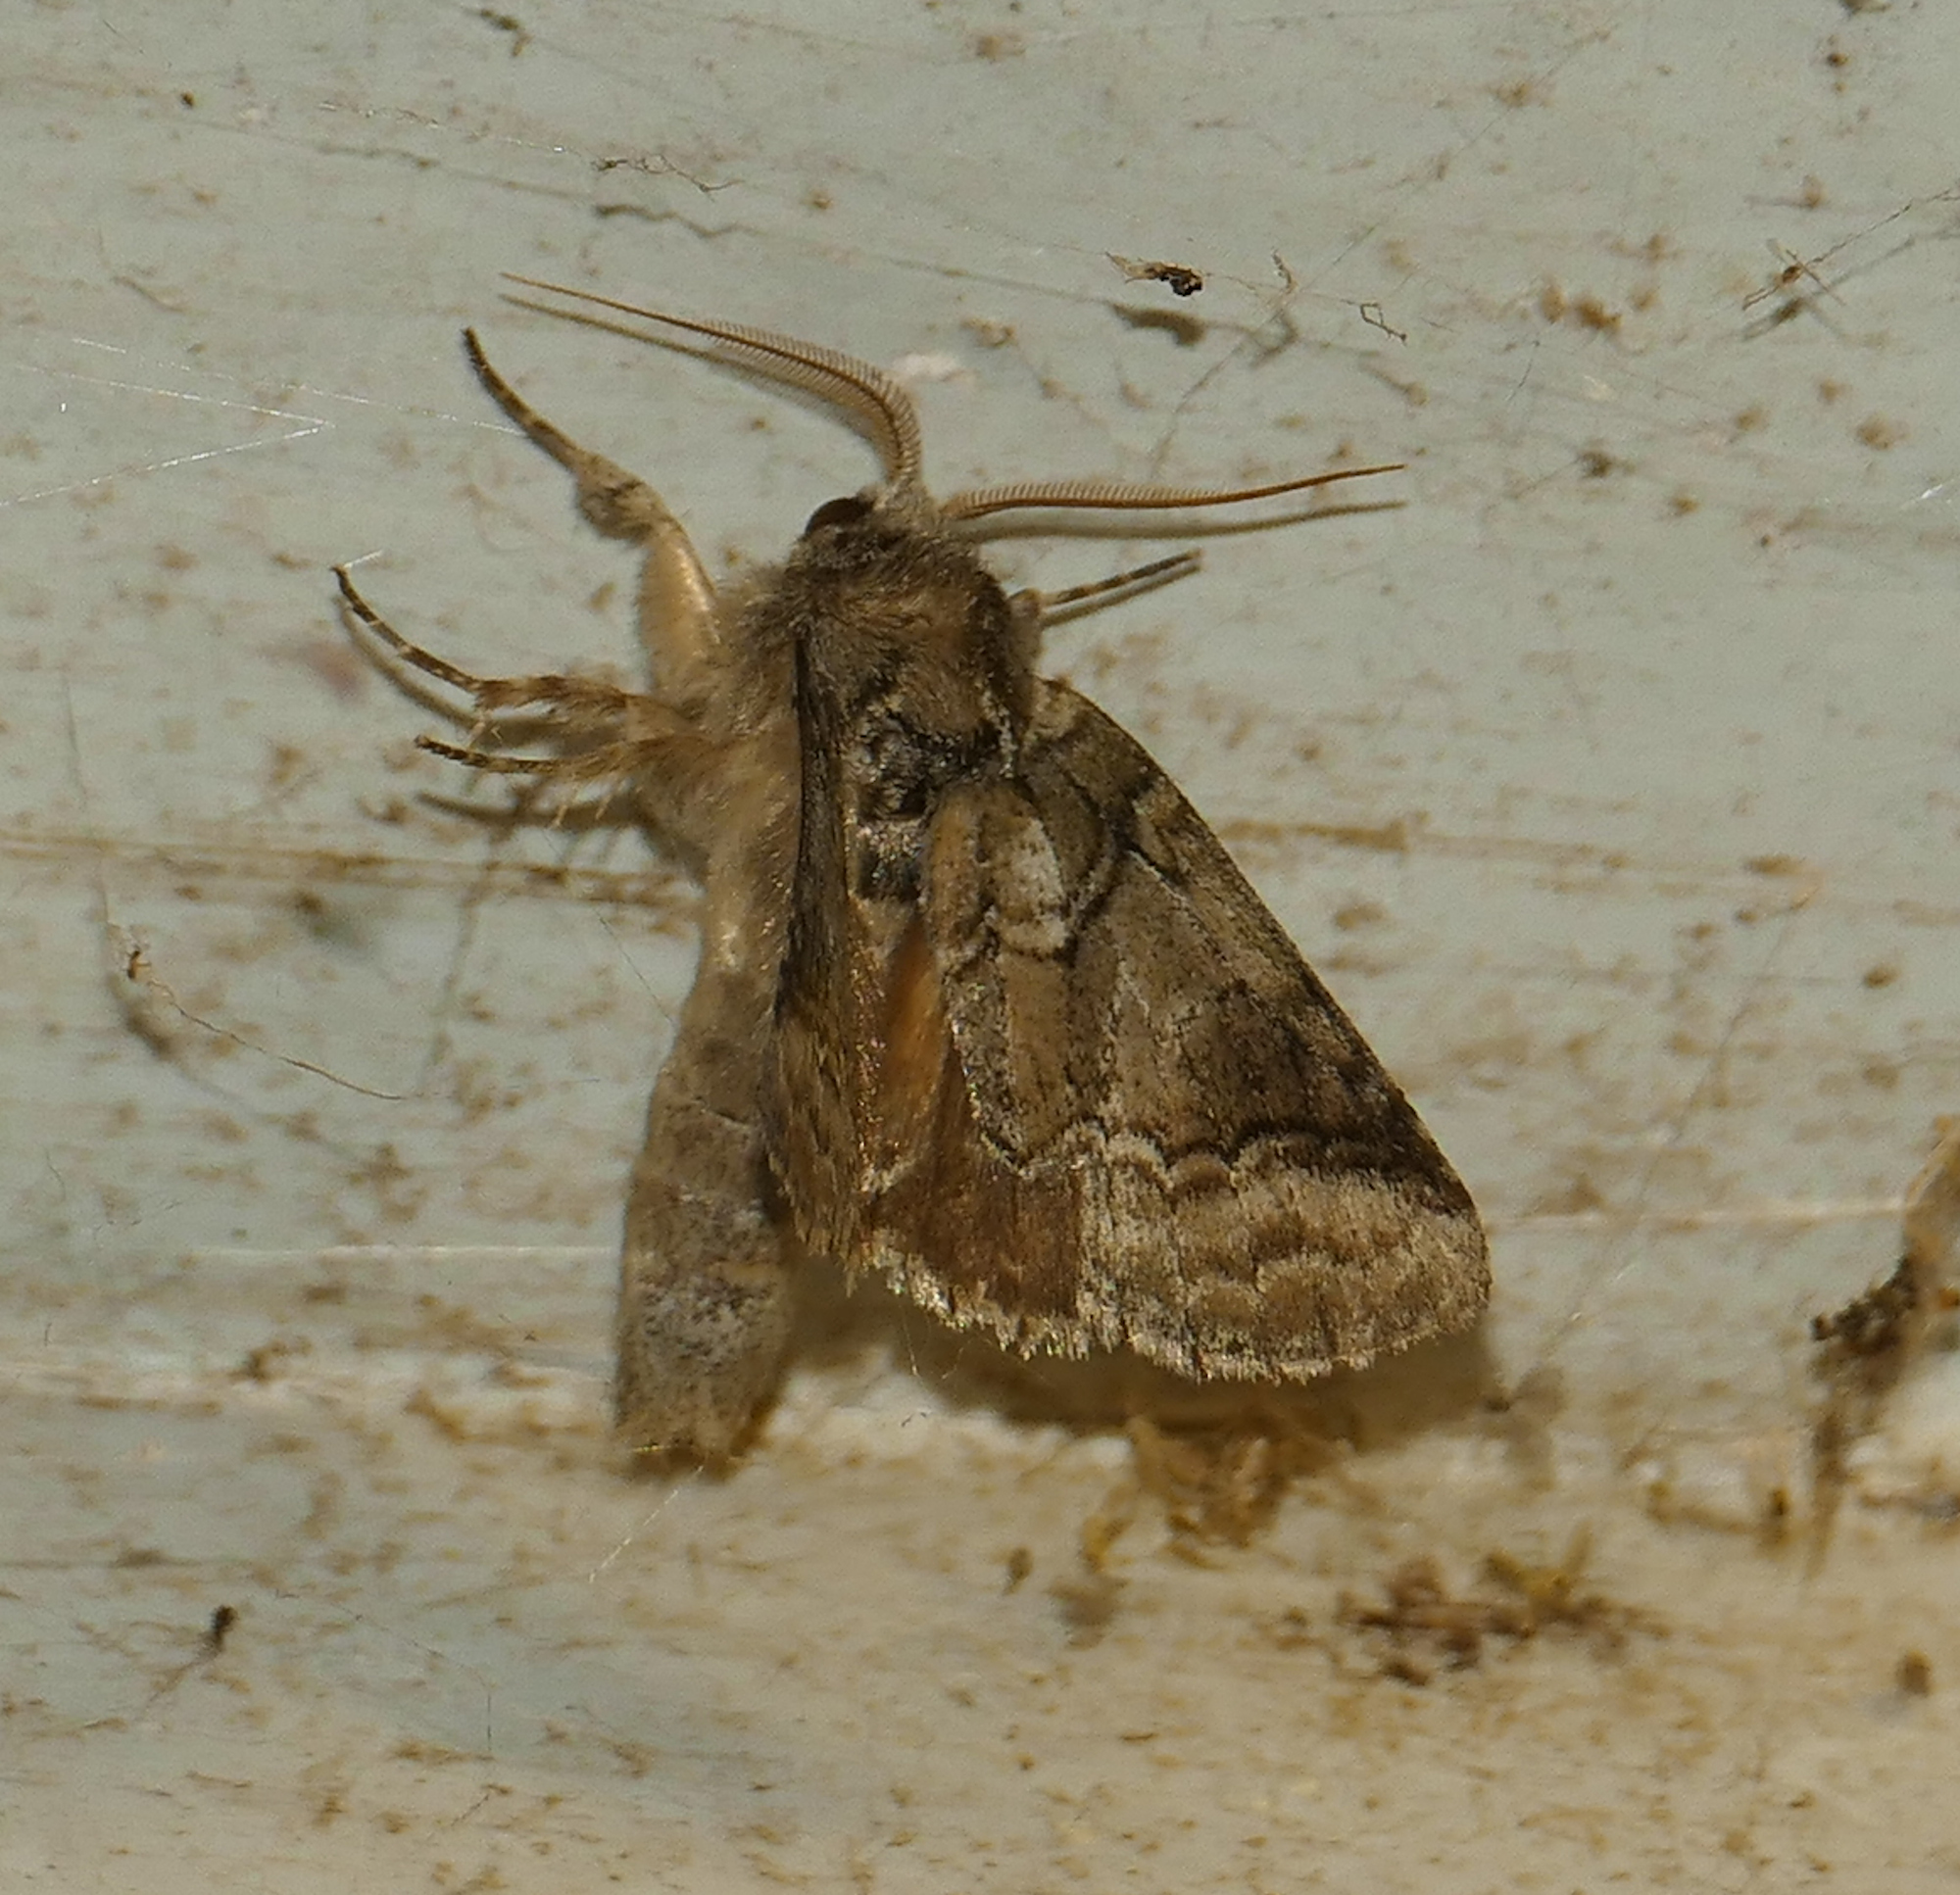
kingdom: Animalia
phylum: Arthropoda
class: Insecta
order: Lepidoptera
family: Notodontidae
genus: Lochmaeus
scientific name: Lochmaeus bilineata
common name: Double-lined prominent
